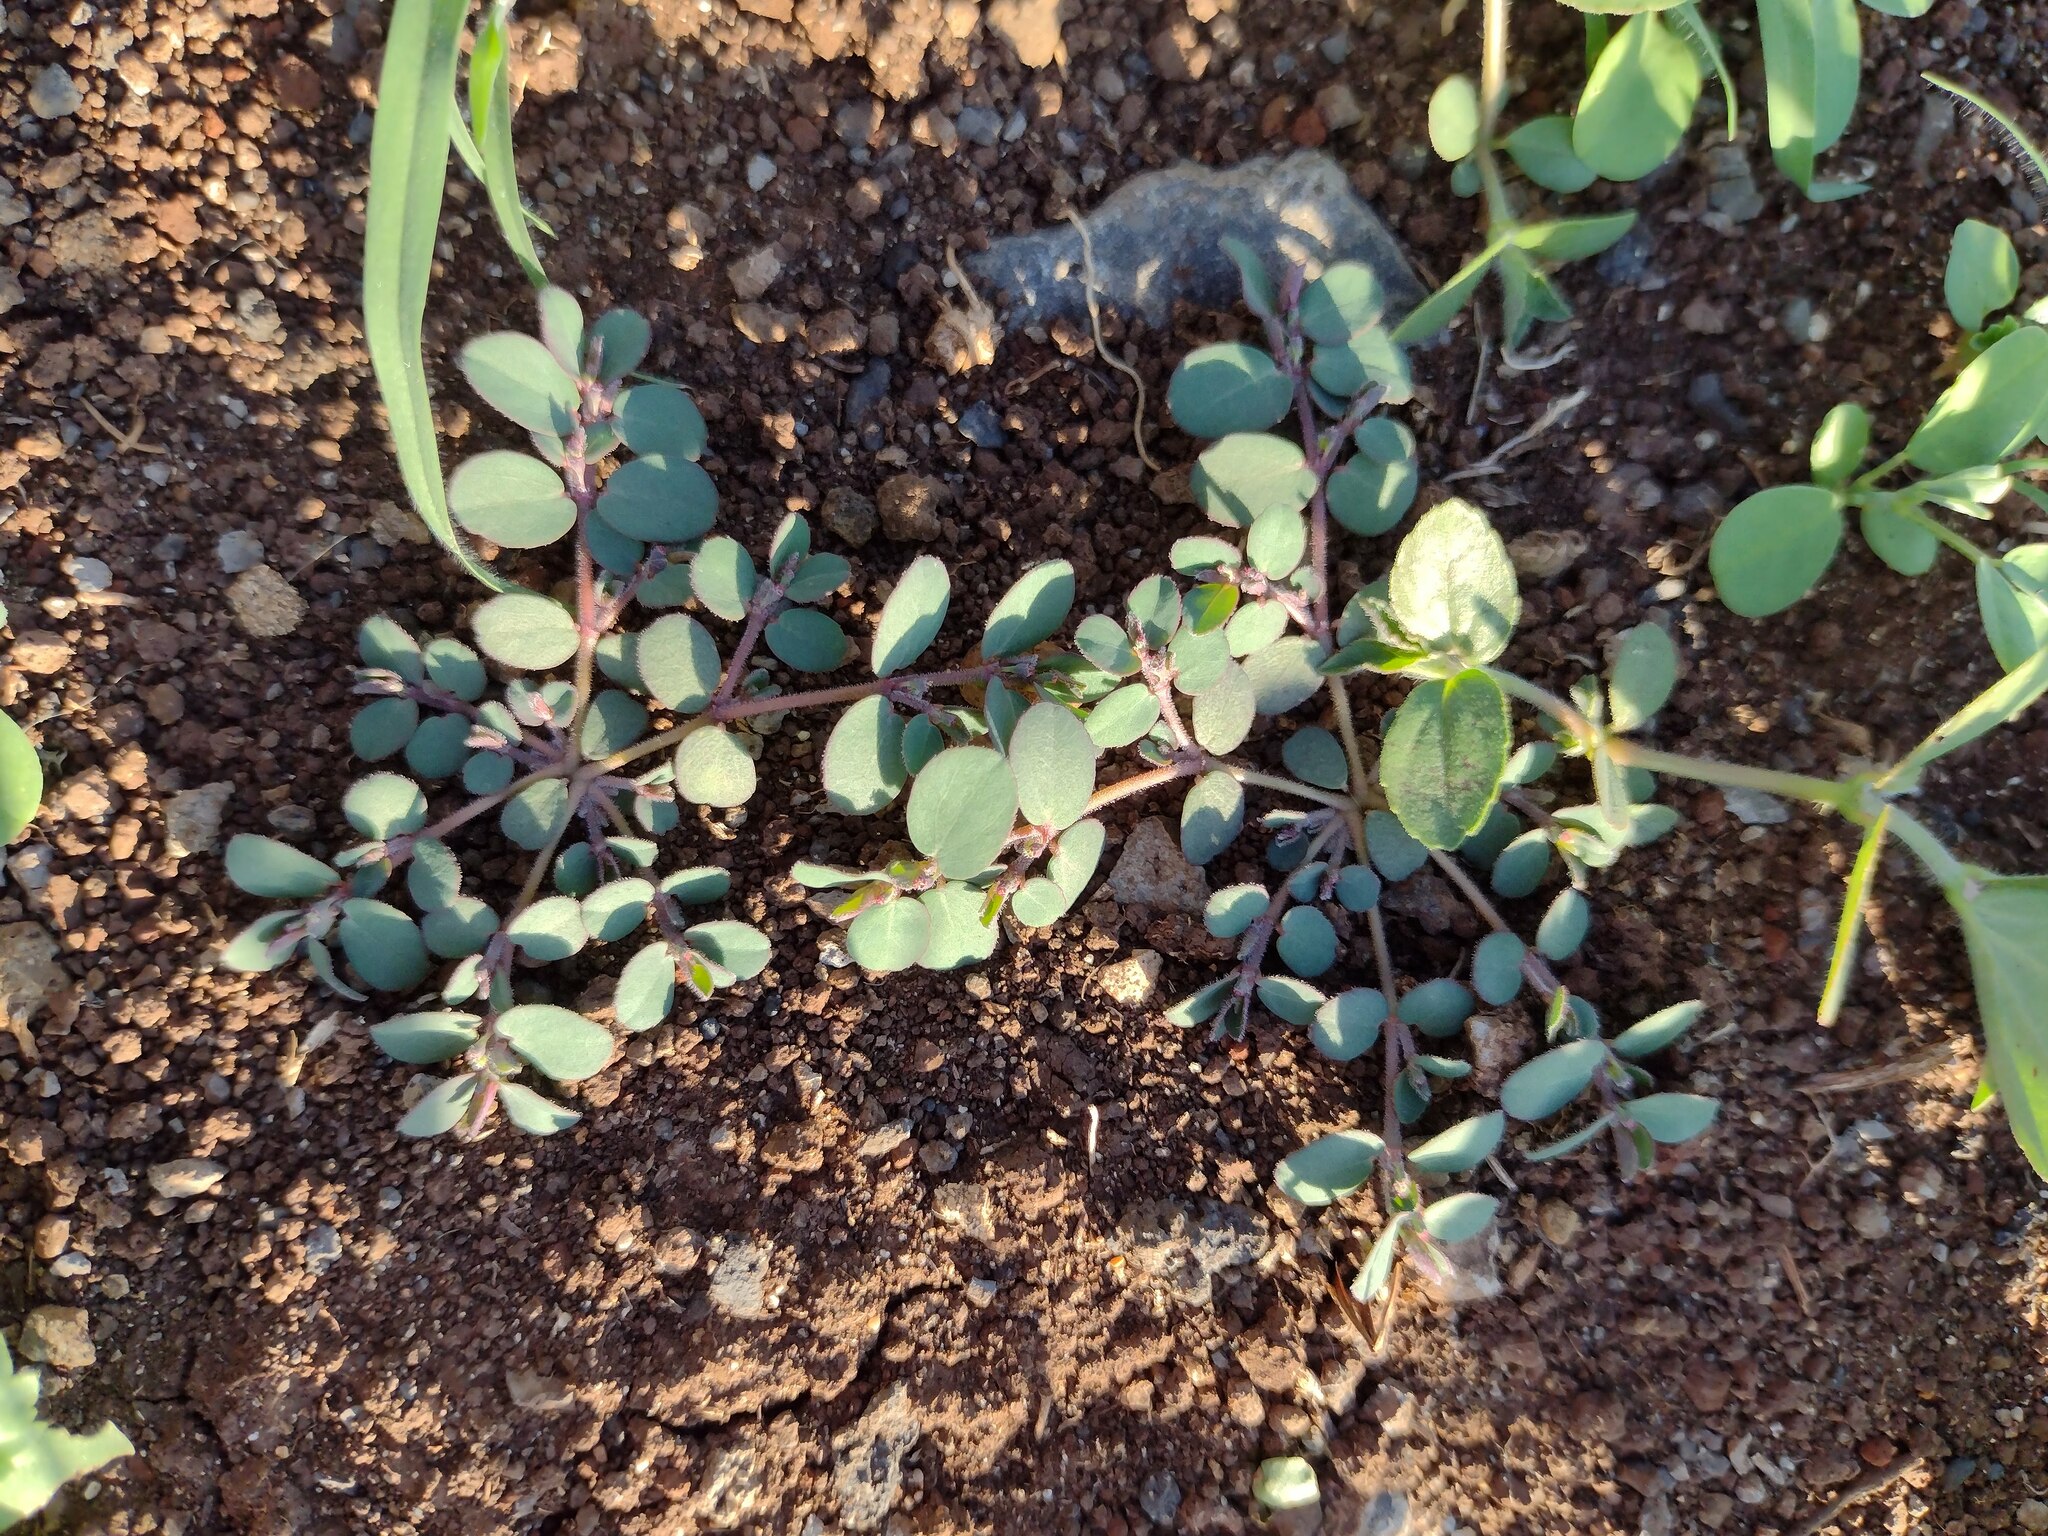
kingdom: Plantae
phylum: Tracheophyta
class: Magnoliopsida
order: Malpighiales
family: Euphorbiaceae
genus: Euphorbia
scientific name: Euphorbia prostrata
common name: Prostrate sandmat
